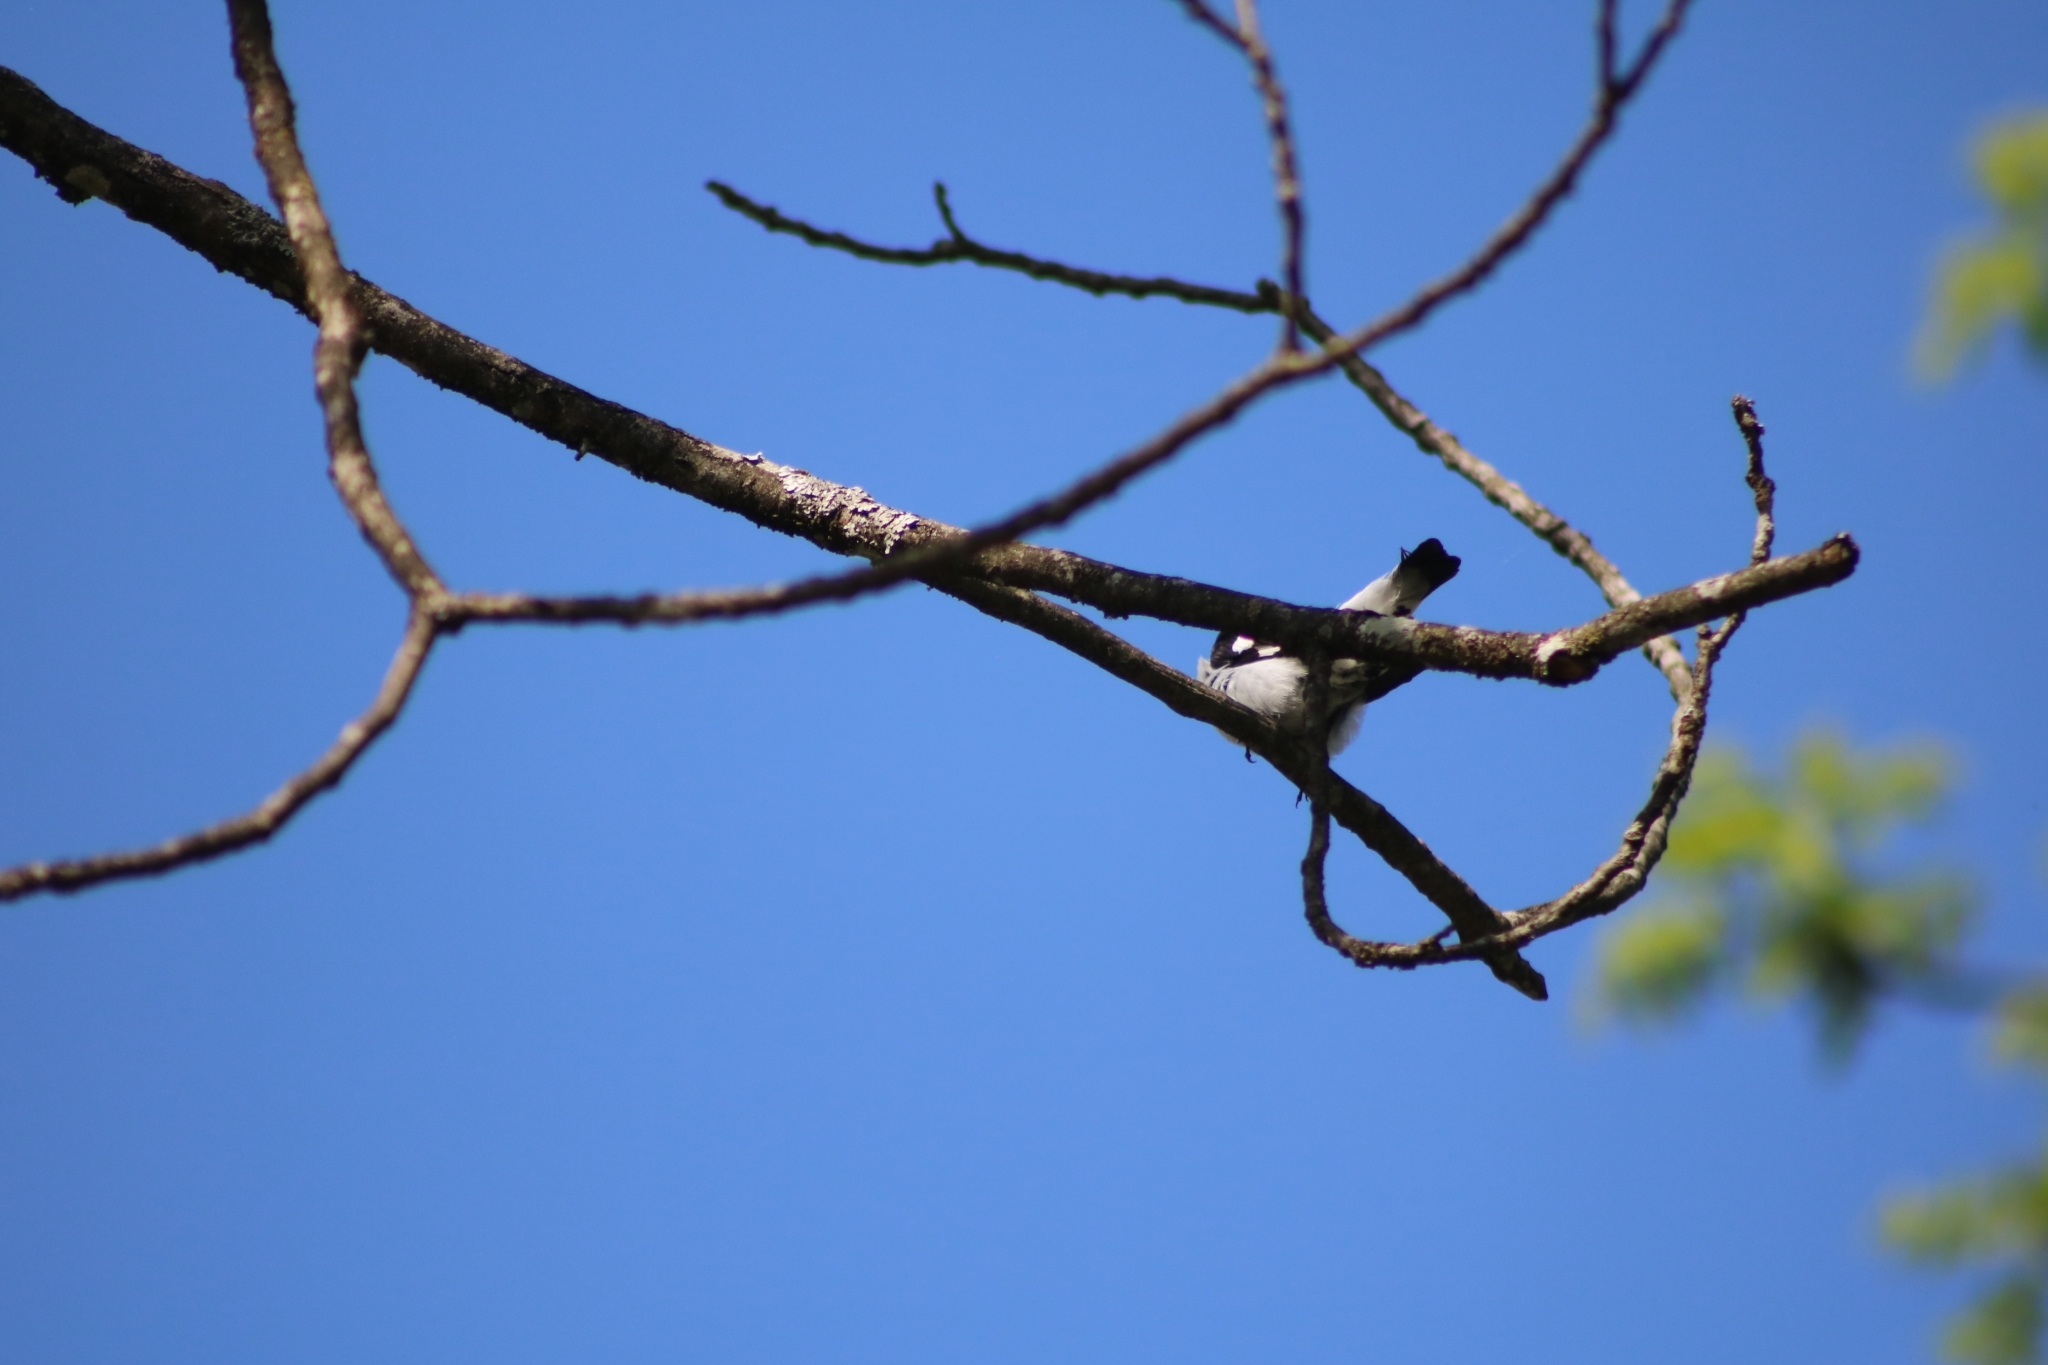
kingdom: Animalia
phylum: Chordata
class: Aves
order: Passeriformes
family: Muscicapidae
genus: Ficedula
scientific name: Ficedula albicollis
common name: Collared flycatcher
